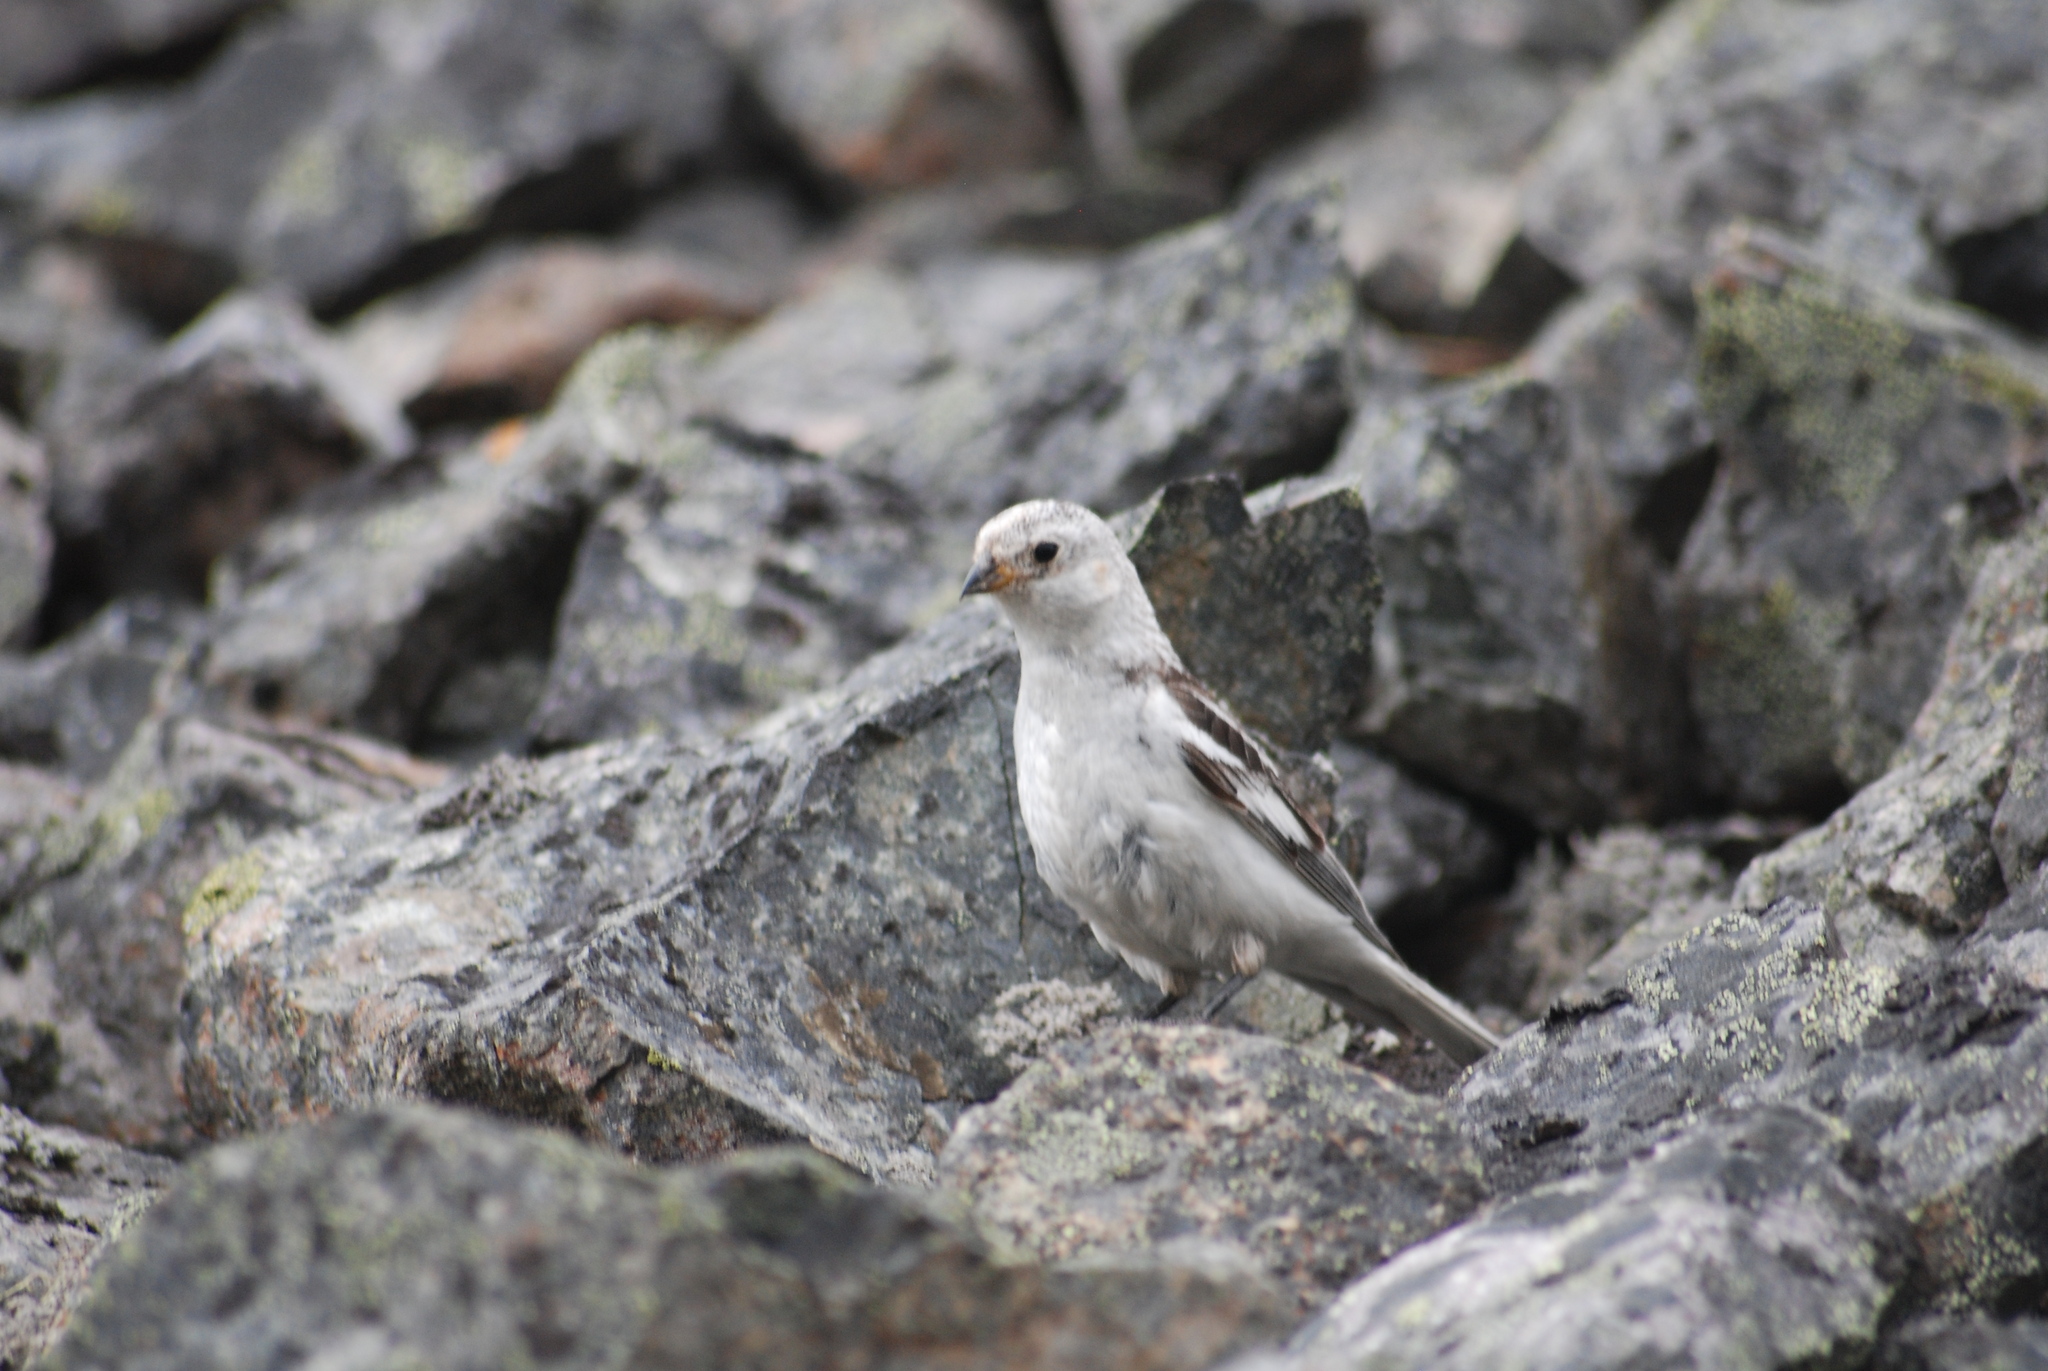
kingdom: Animalia
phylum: Chordata
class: Aves
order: Passeriformes
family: Calcariidae
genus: Plectrophenax
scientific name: Plectrophenax nivalis
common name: Snow bunting
